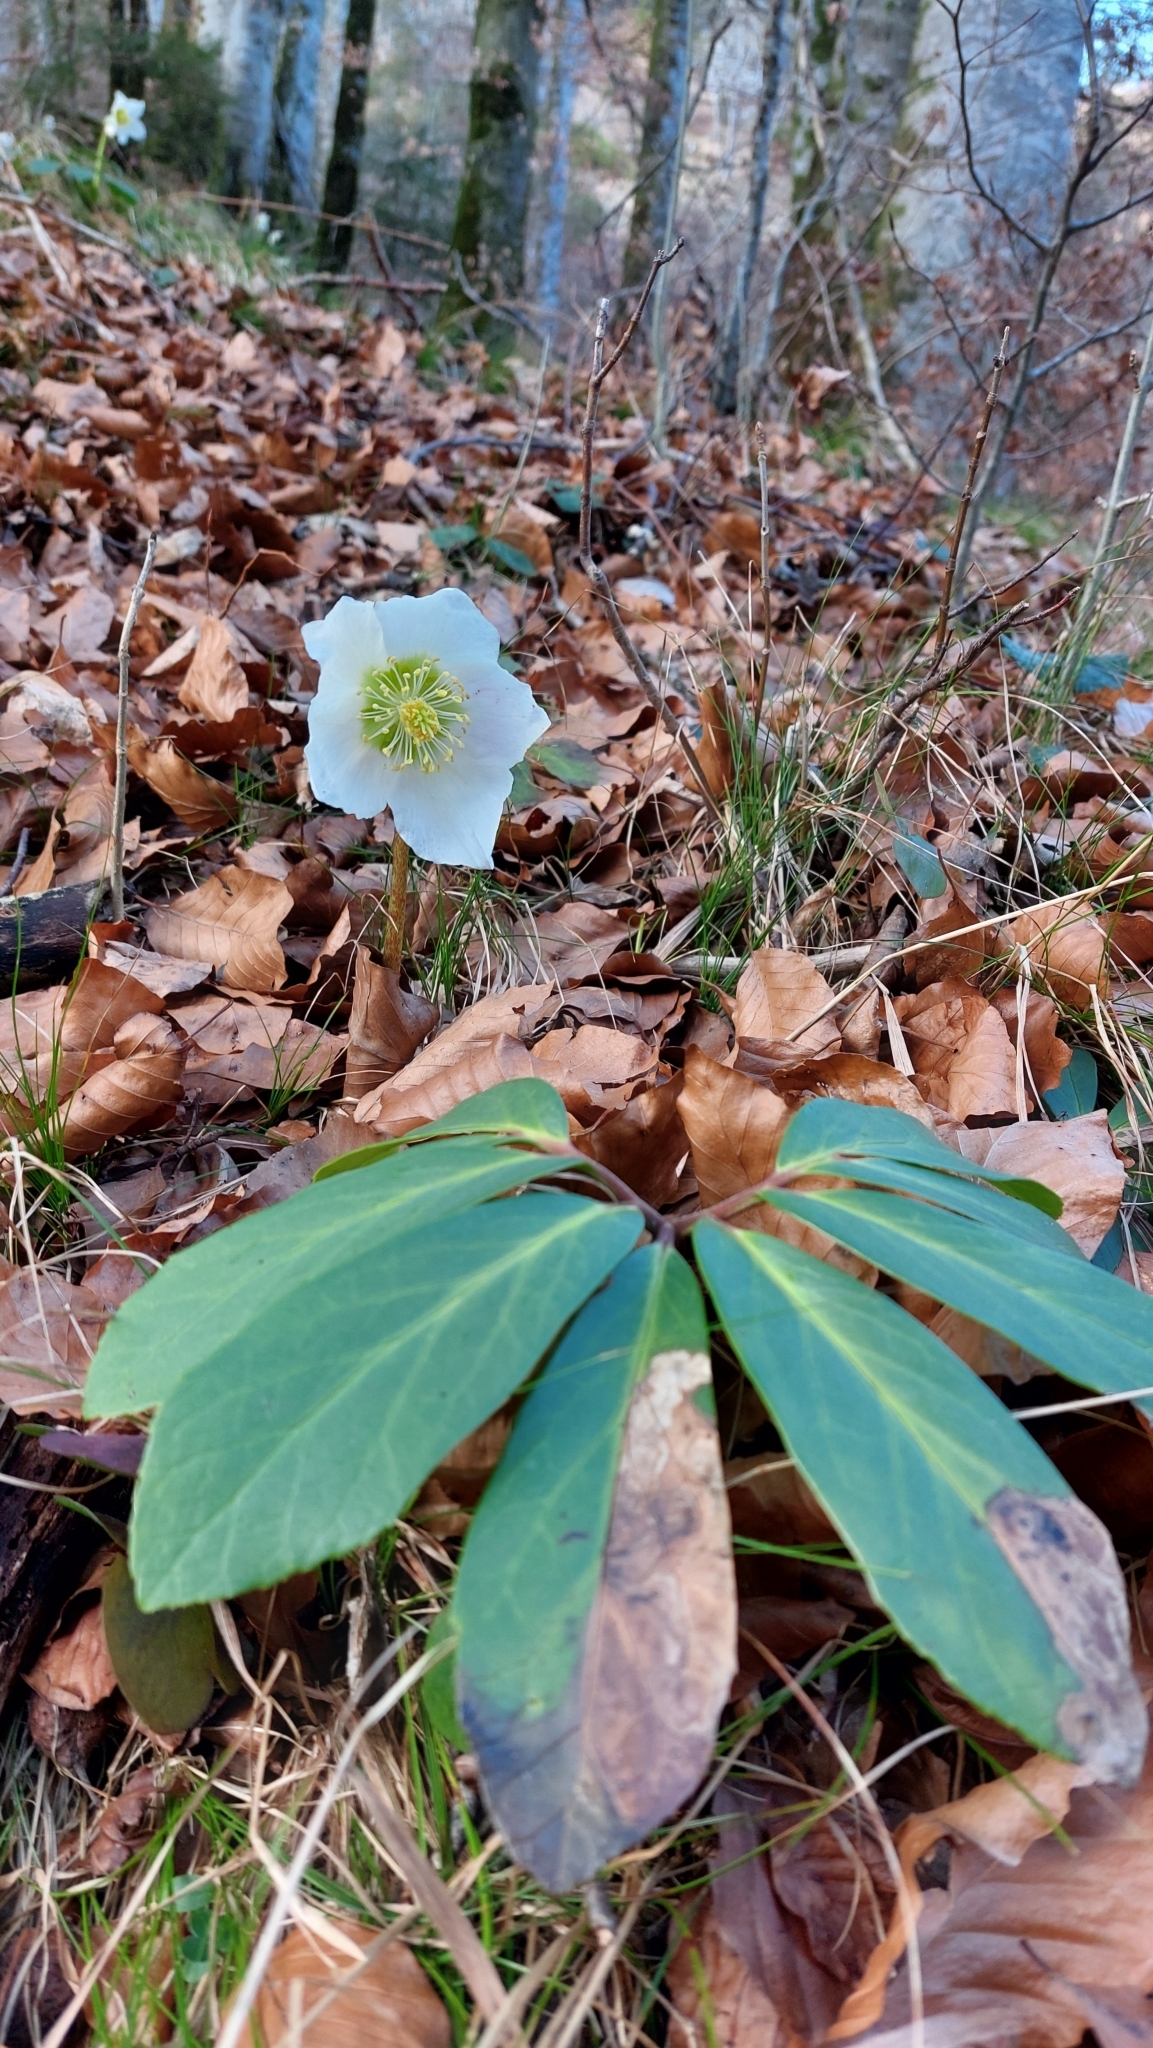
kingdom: Plantae
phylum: Tracheophyta
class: Magnoliopsida
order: Ranunculales
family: Ranunculaceae
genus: Helleborus
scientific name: Helleborus niger
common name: Black hellebore
